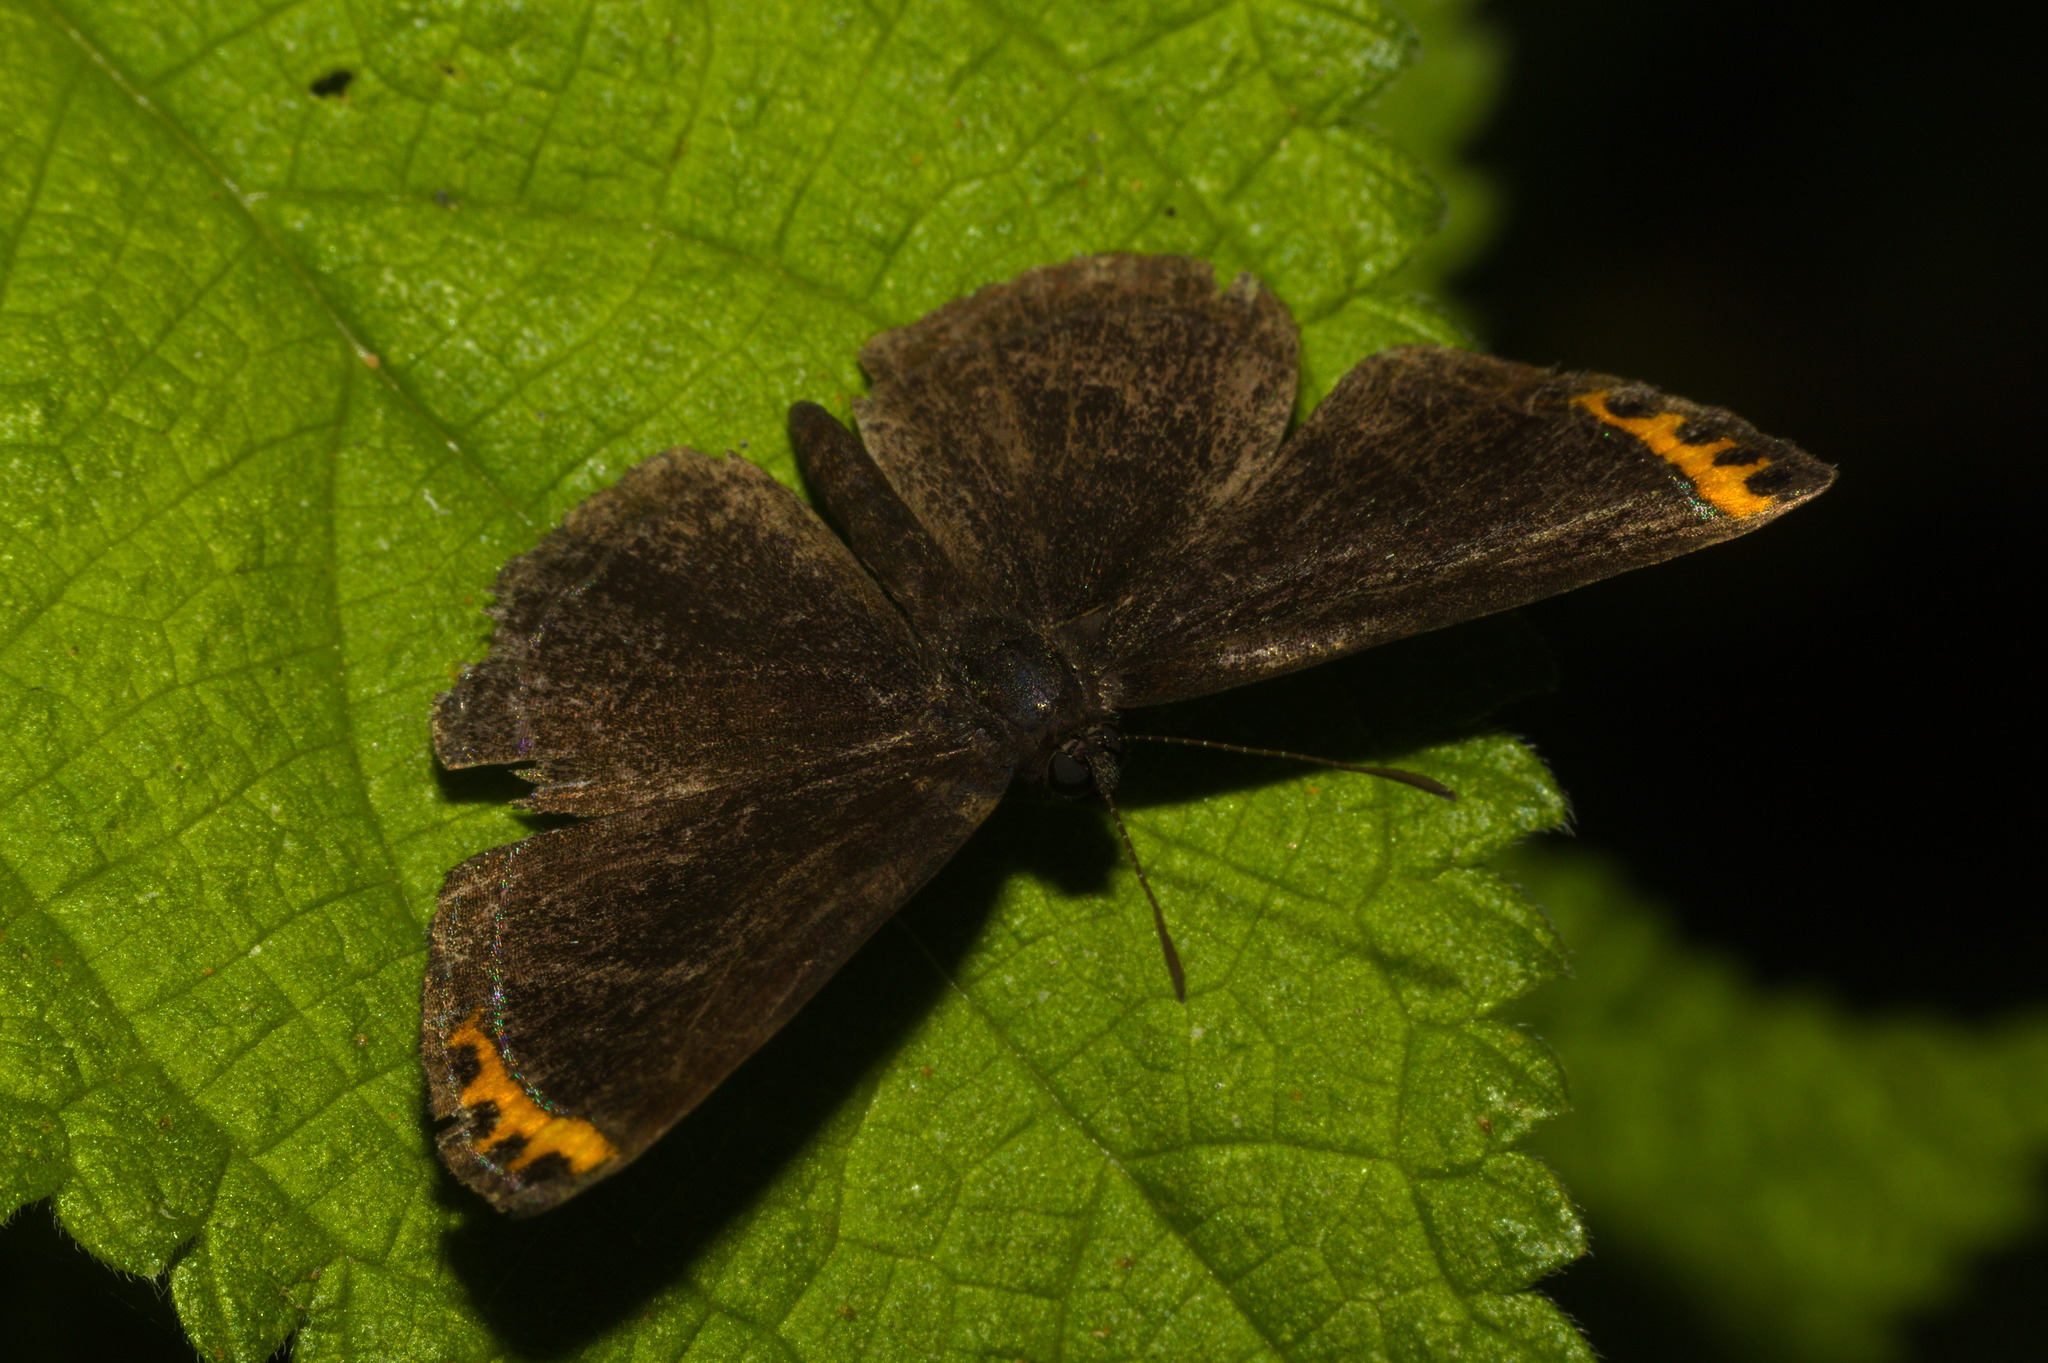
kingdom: Animalia
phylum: Arthropoda
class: Insecta
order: Lepidoptera
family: Riodinidae
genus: Nelone
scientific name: Nelone cadmeis
